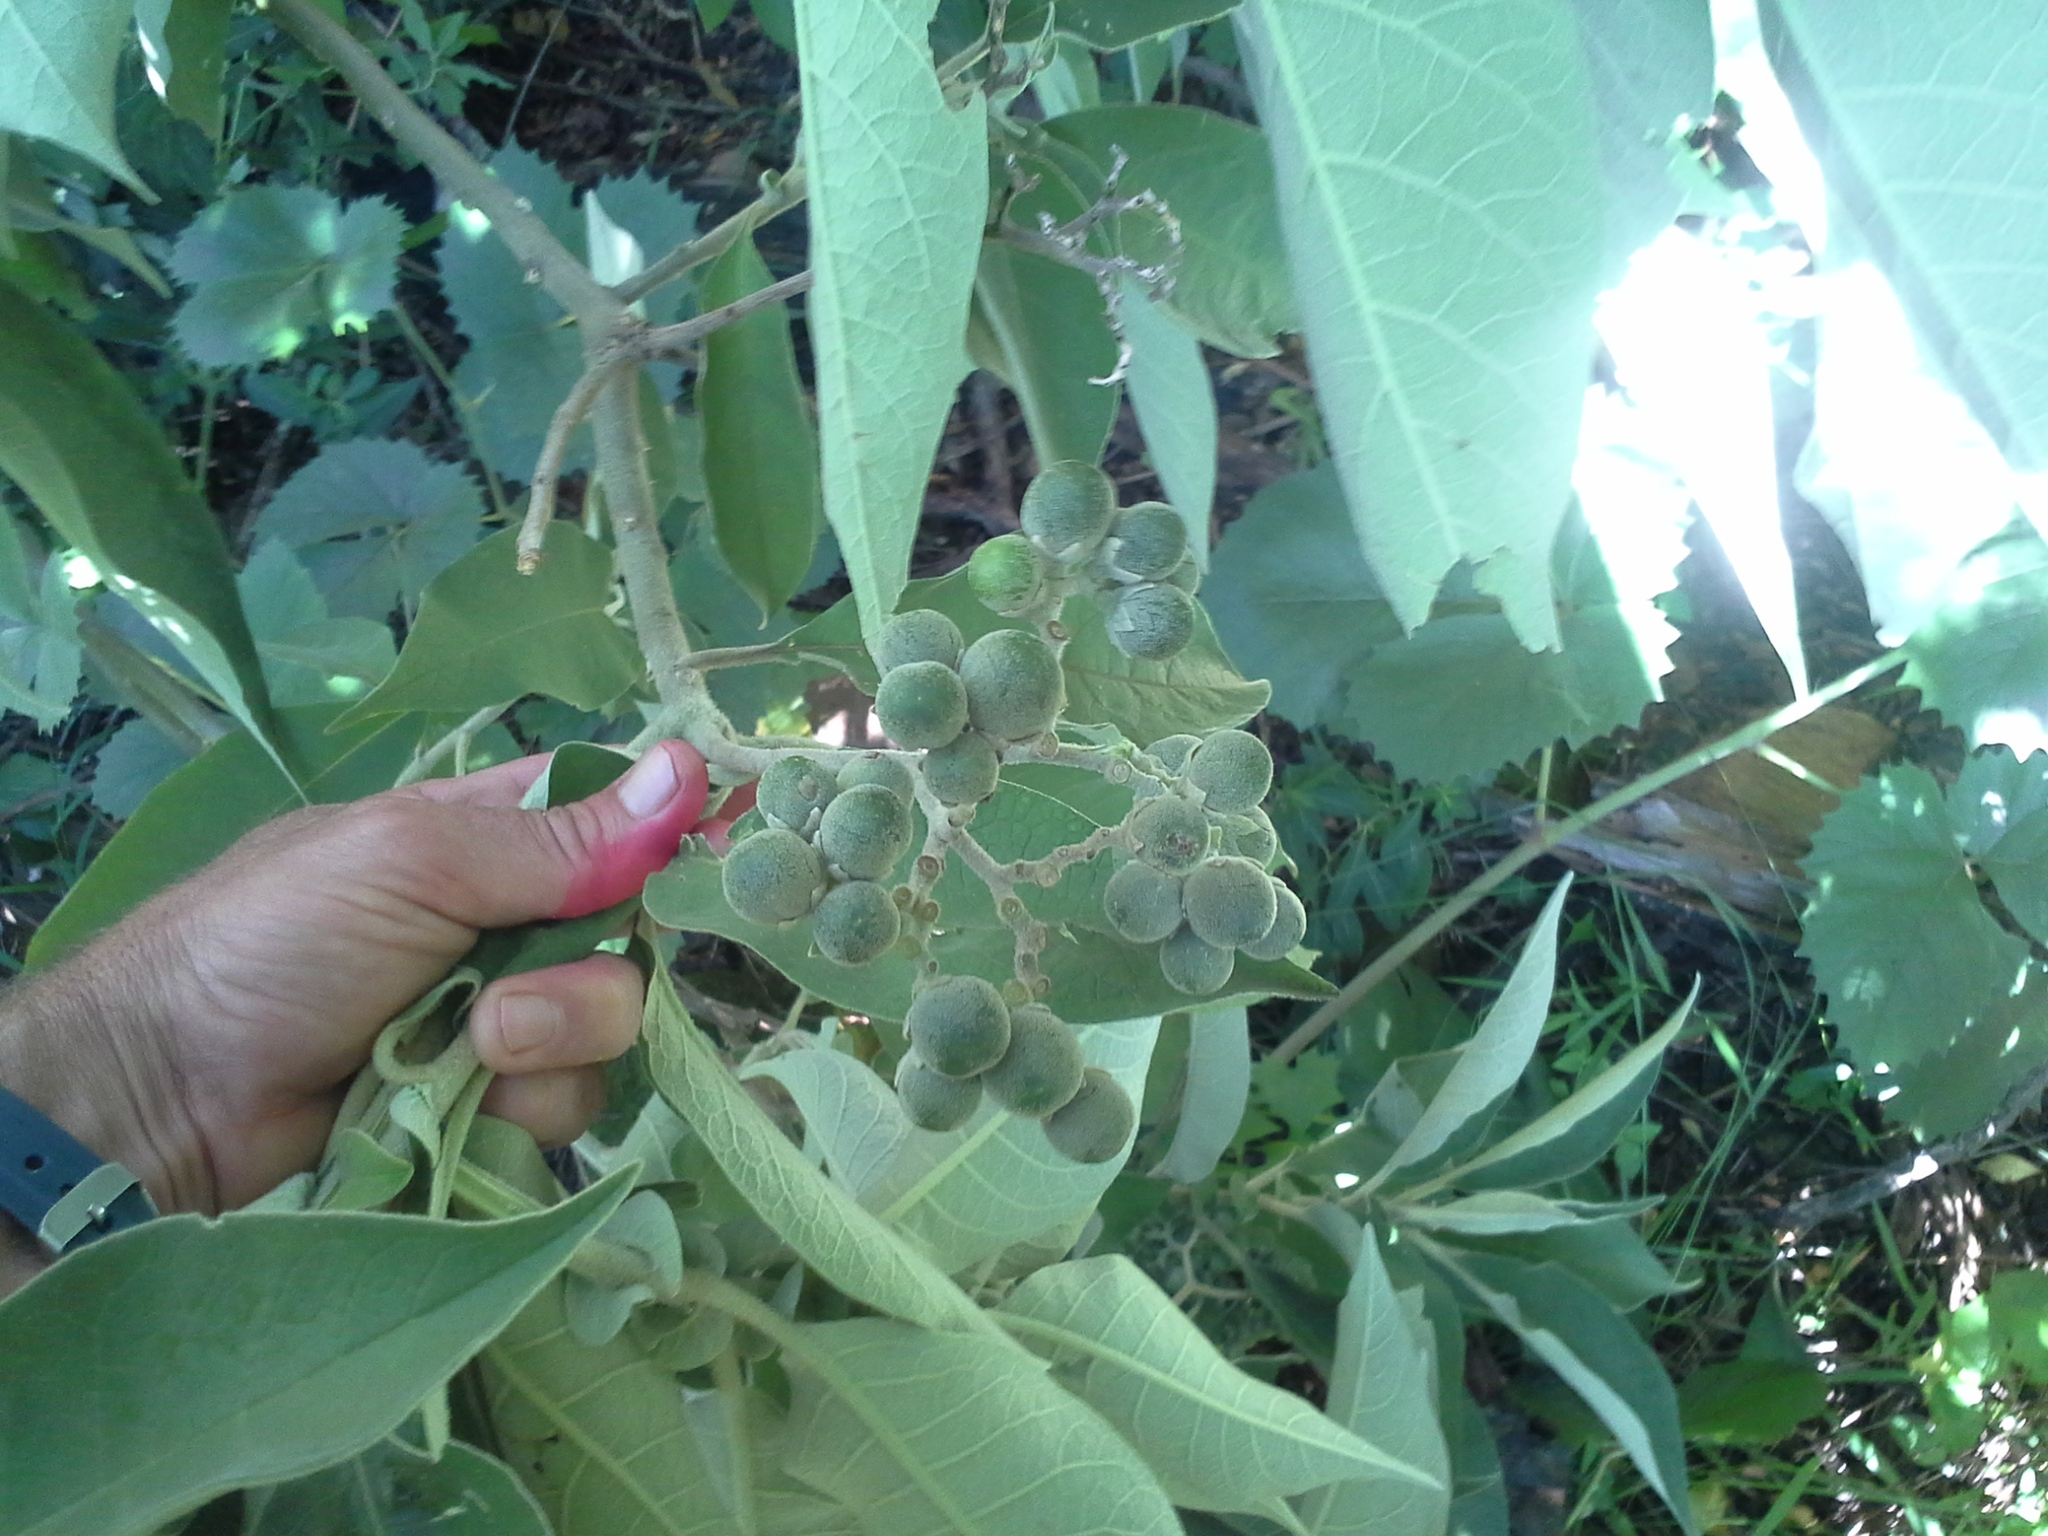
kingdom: Plantae
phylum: Tracheophyta
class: Magnoliopsida
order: Solanales
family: Solanaceae
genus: Solanum
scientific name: Solanum mauritianum
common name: Earleaf nightshade
